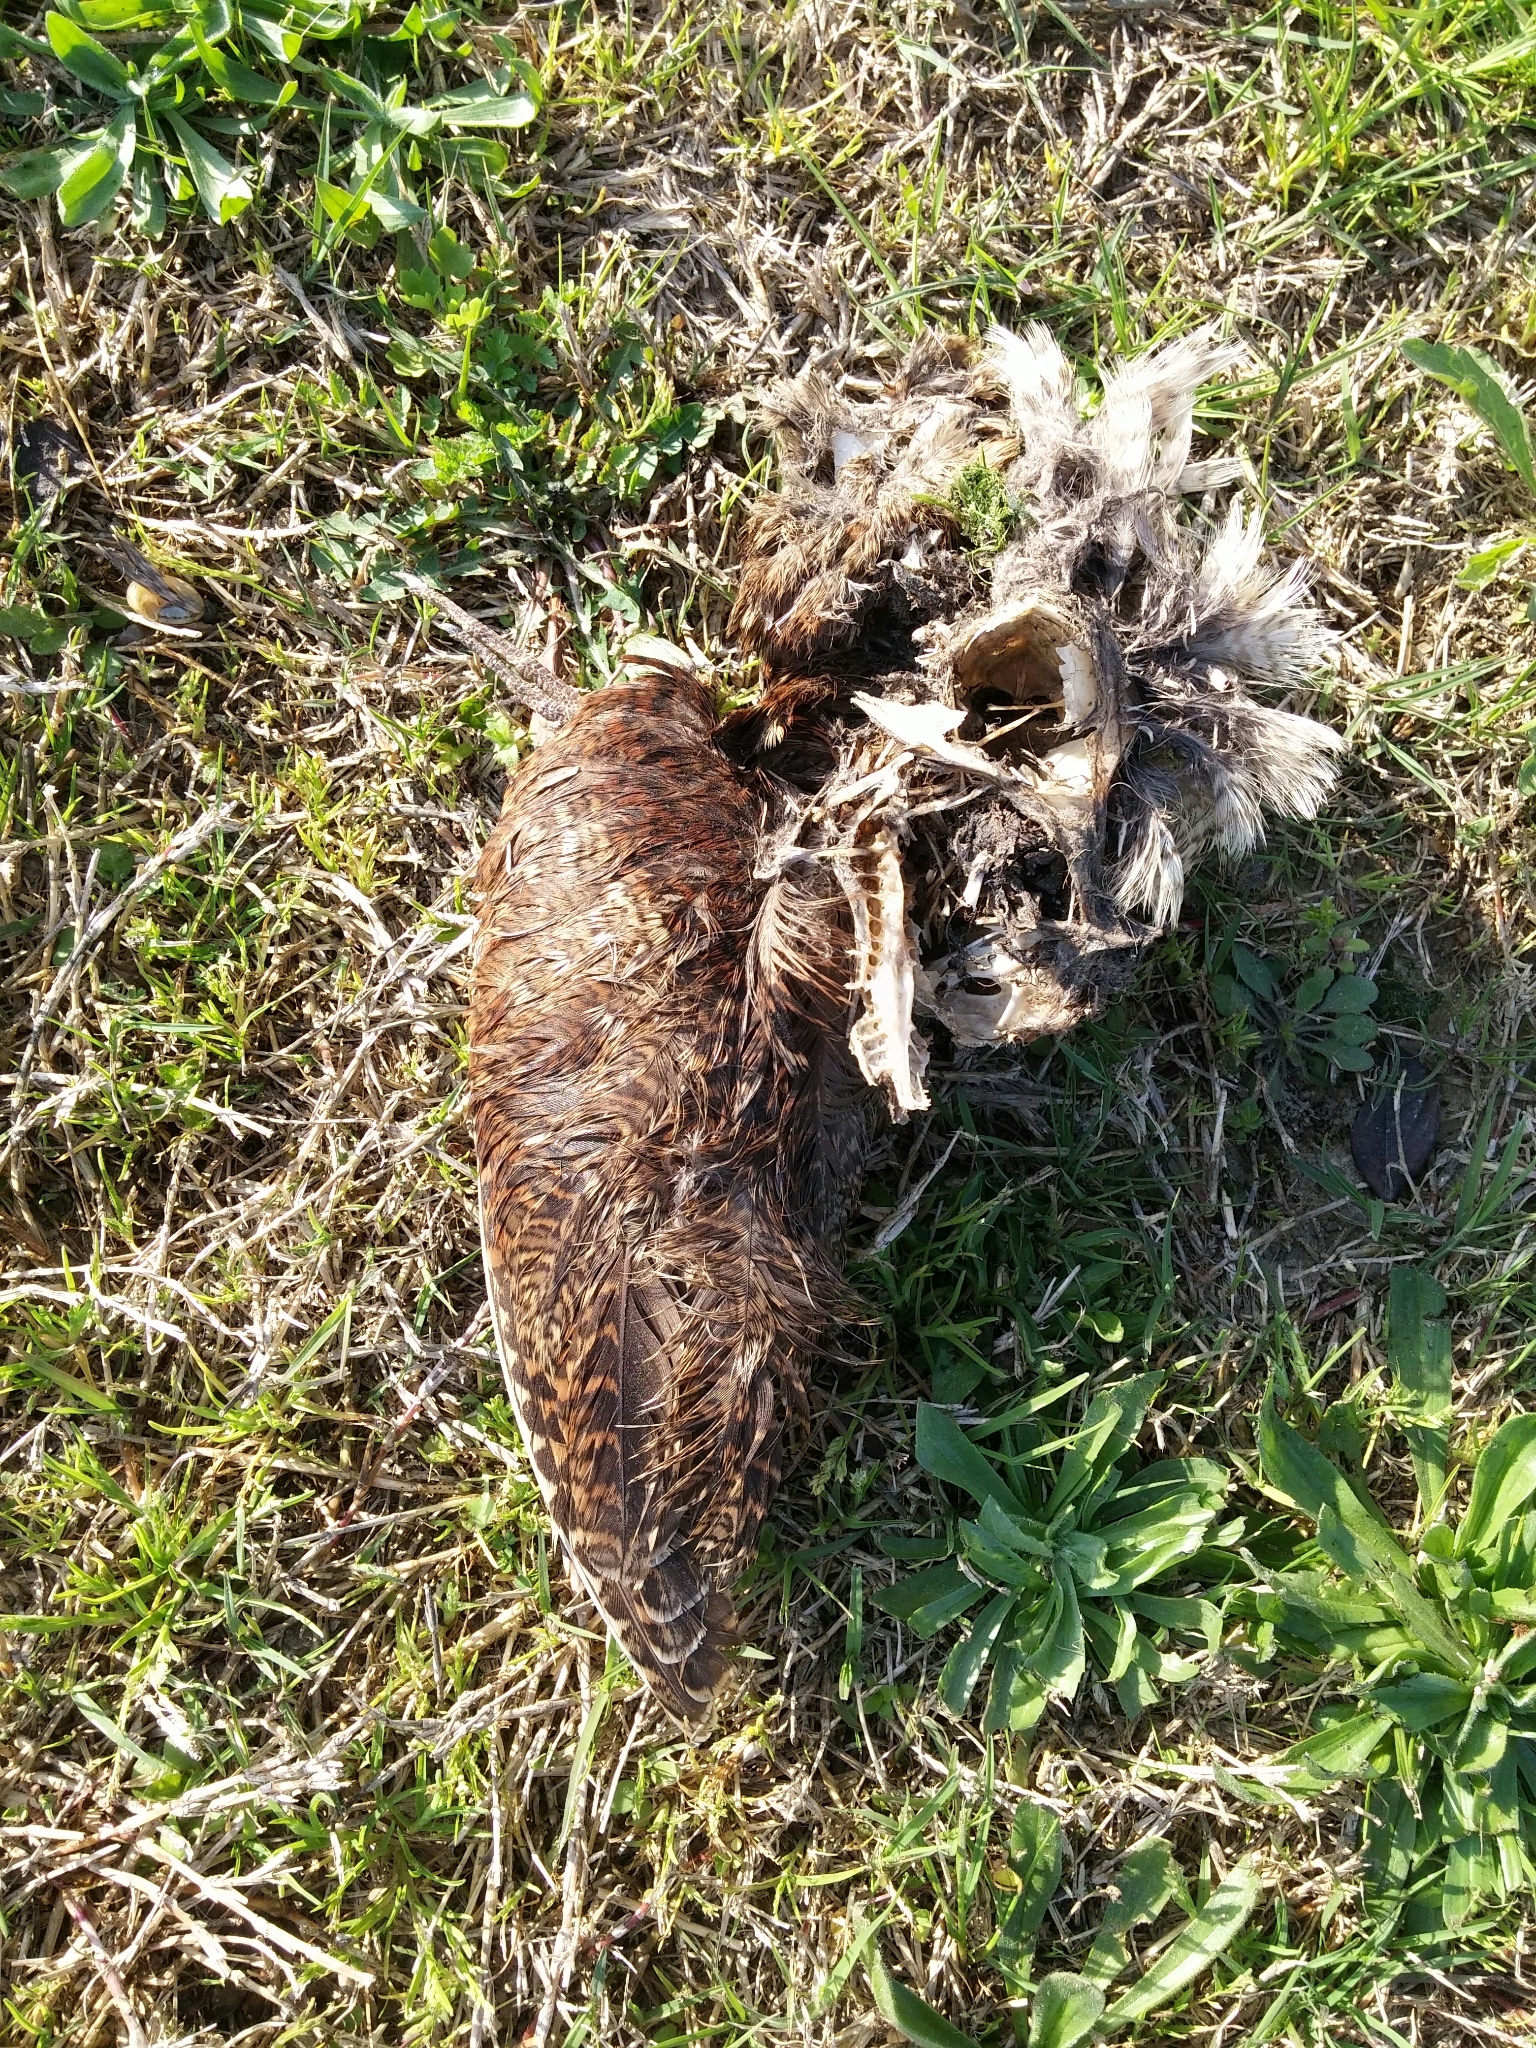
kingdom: Animalia
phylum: Chordata
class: Aves
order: Charadriiformes
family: Scolopacidae
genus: Scolopax
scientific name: Scolopax rusticola
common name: Eurasian woodcock
